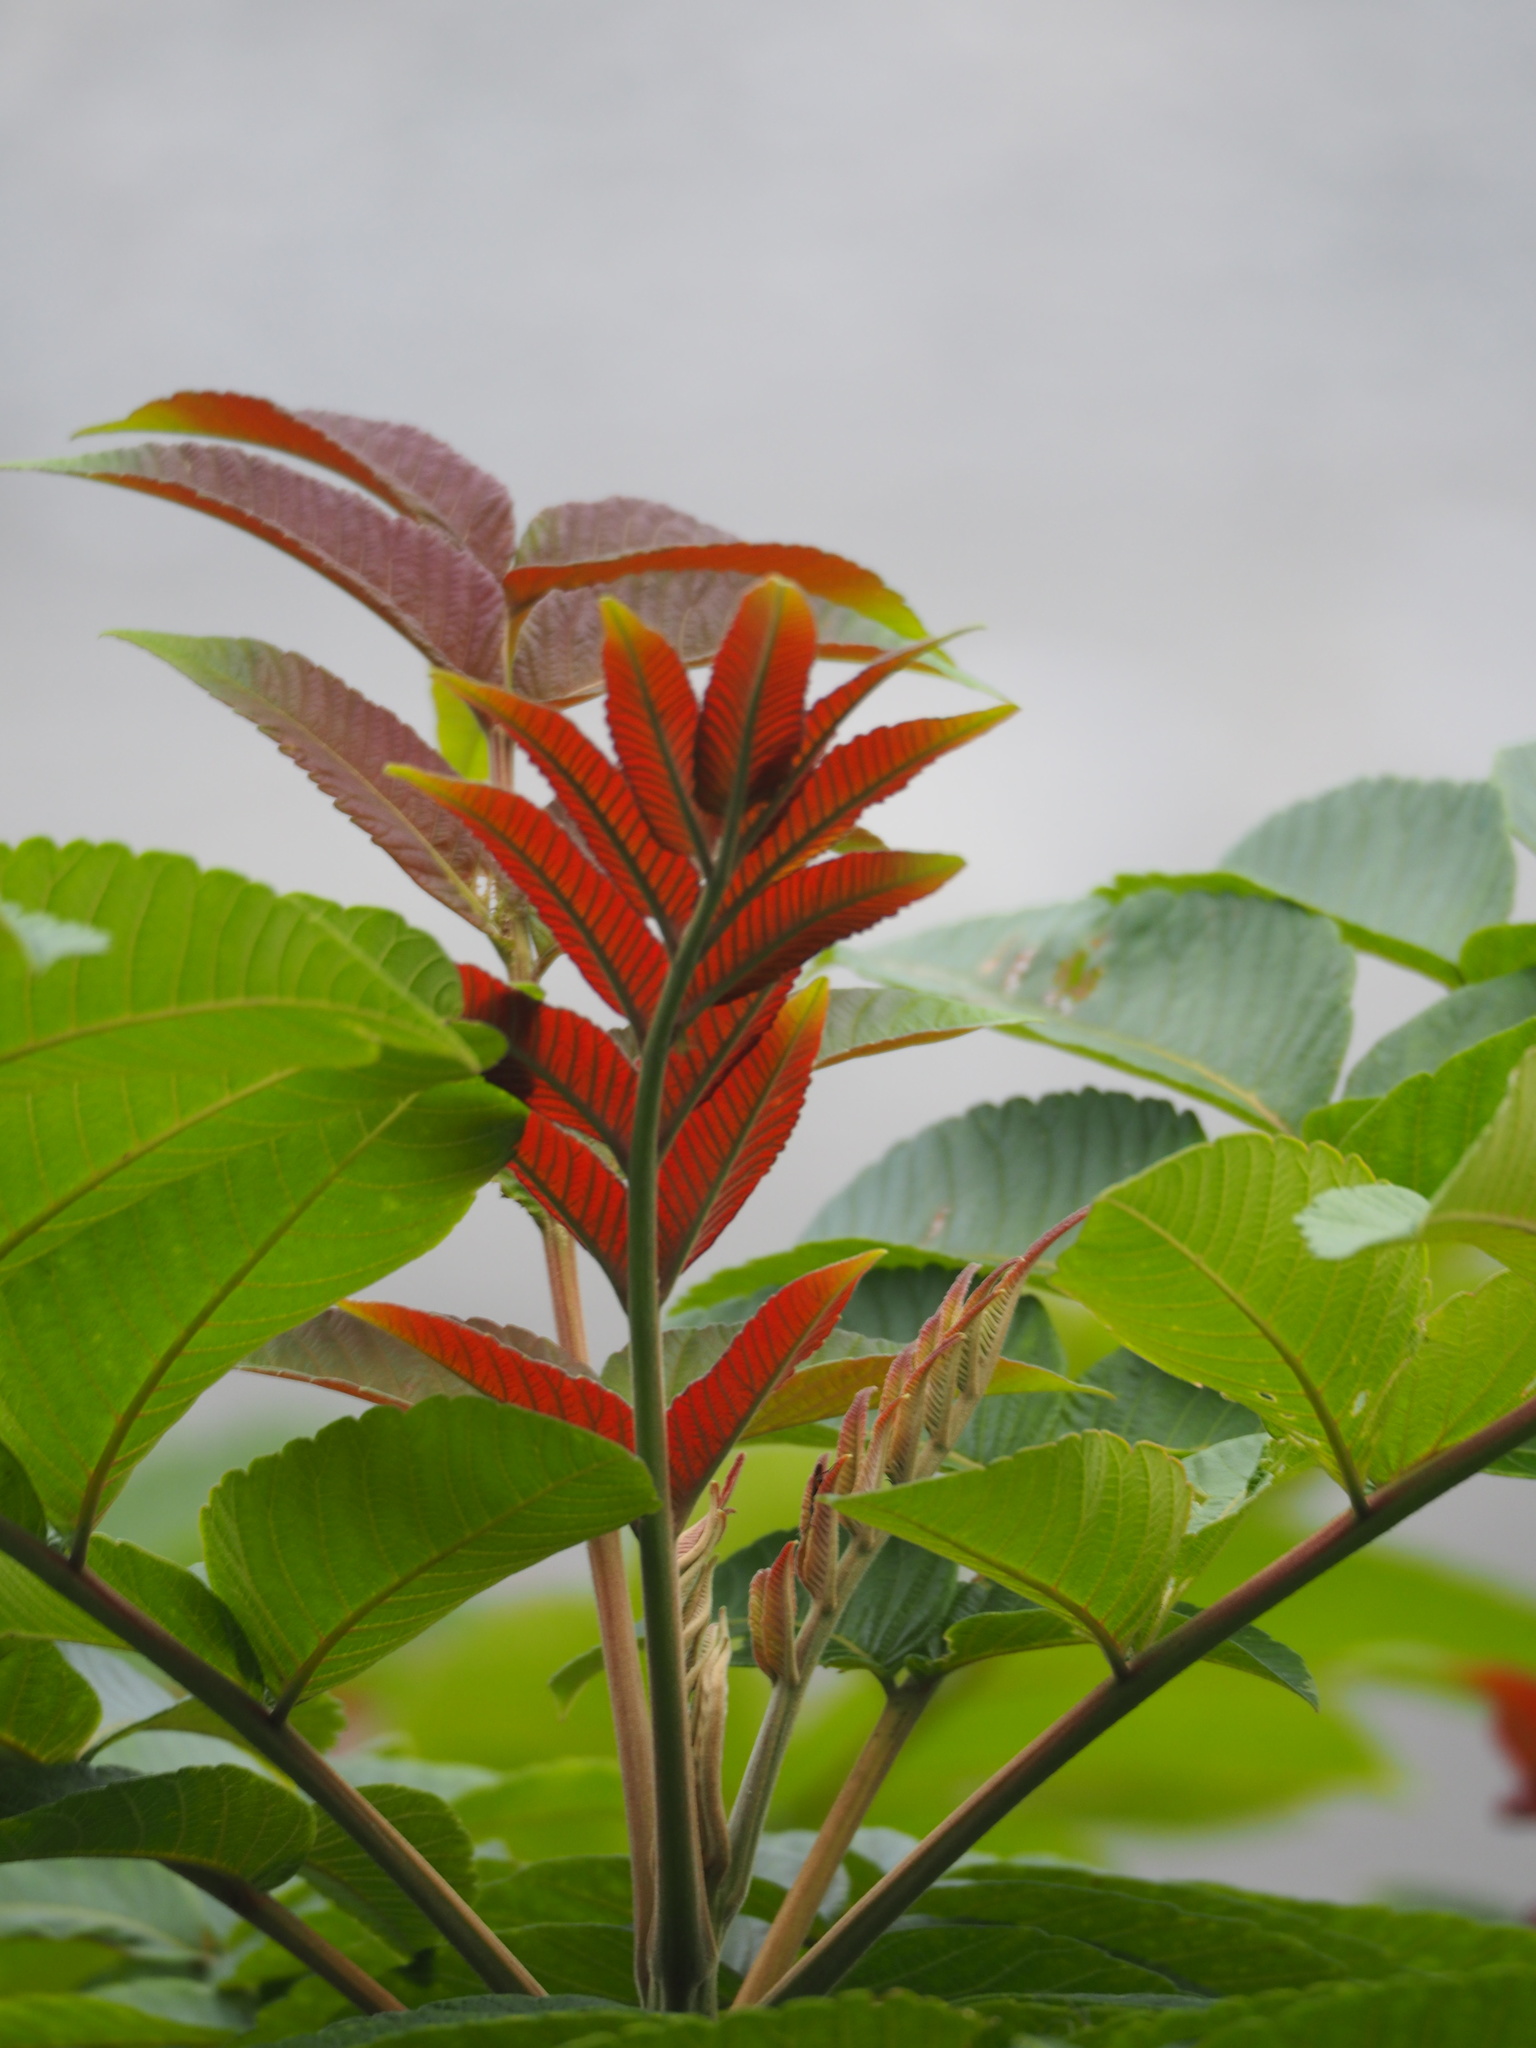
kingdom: Plantae
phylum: Tracheophyta
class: Magnoliopsida
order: Sapindales
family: Anacardiaceae
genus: Rhus
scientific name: Rhus chinensis
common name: Chinese gall
